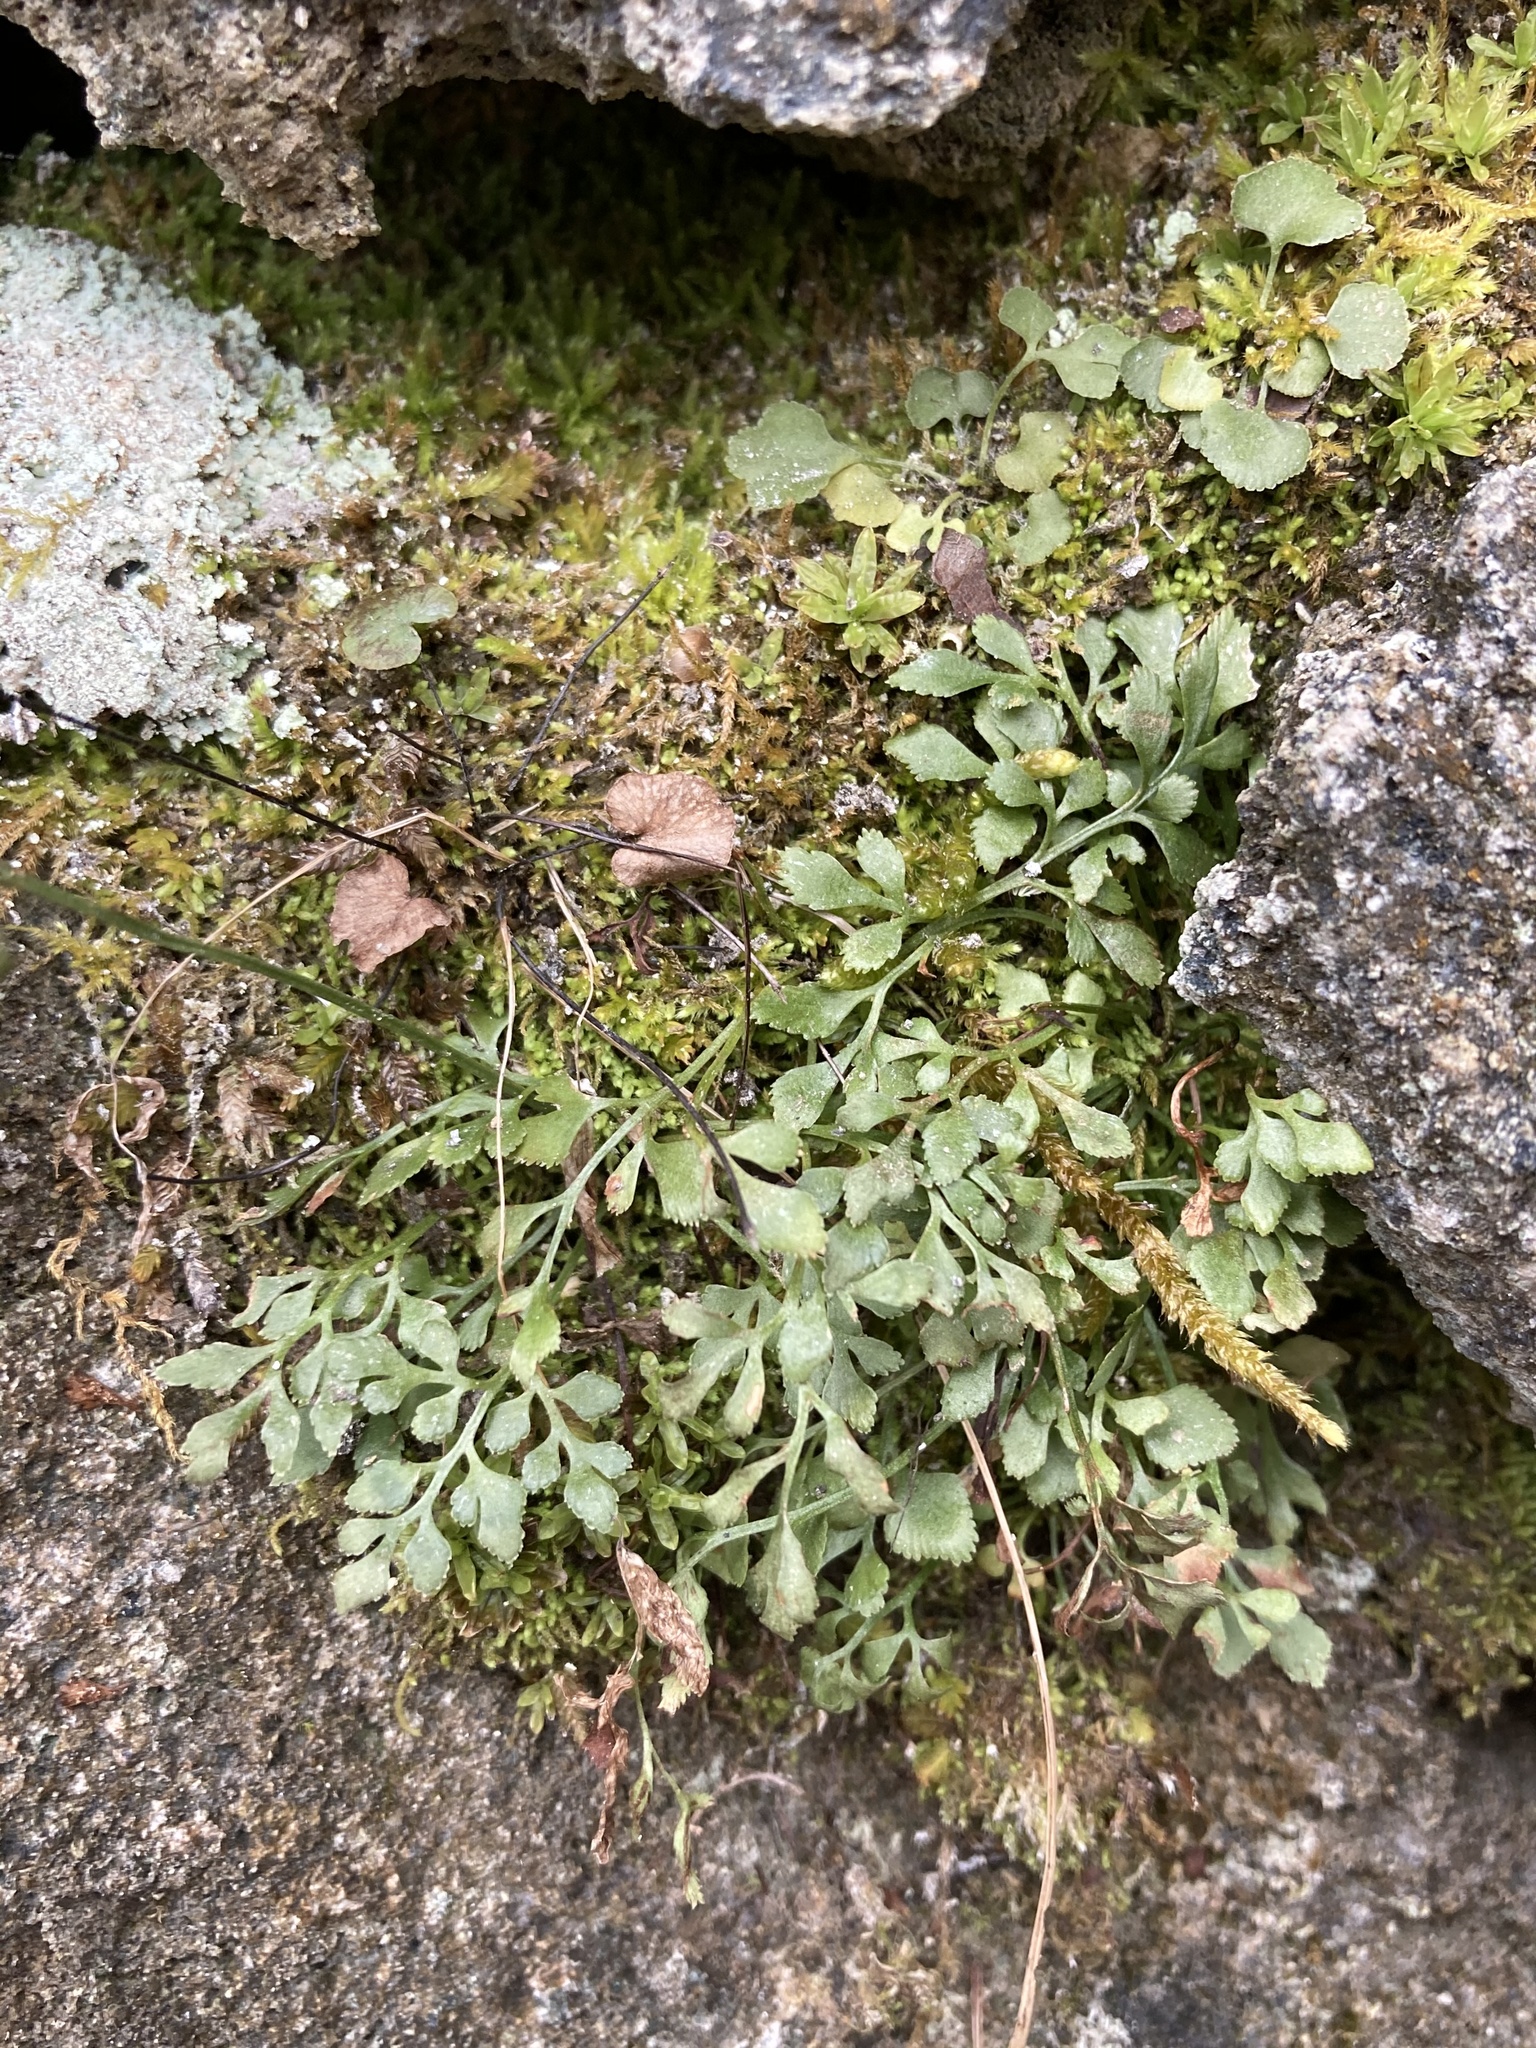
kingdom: Plantae
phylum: Tracheophyta
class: Polypodiopsida
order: Polypodiales
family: Aspleniaceae
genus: Asplenium
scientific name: Asplenium ruta-muraria
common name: Wall-rue
